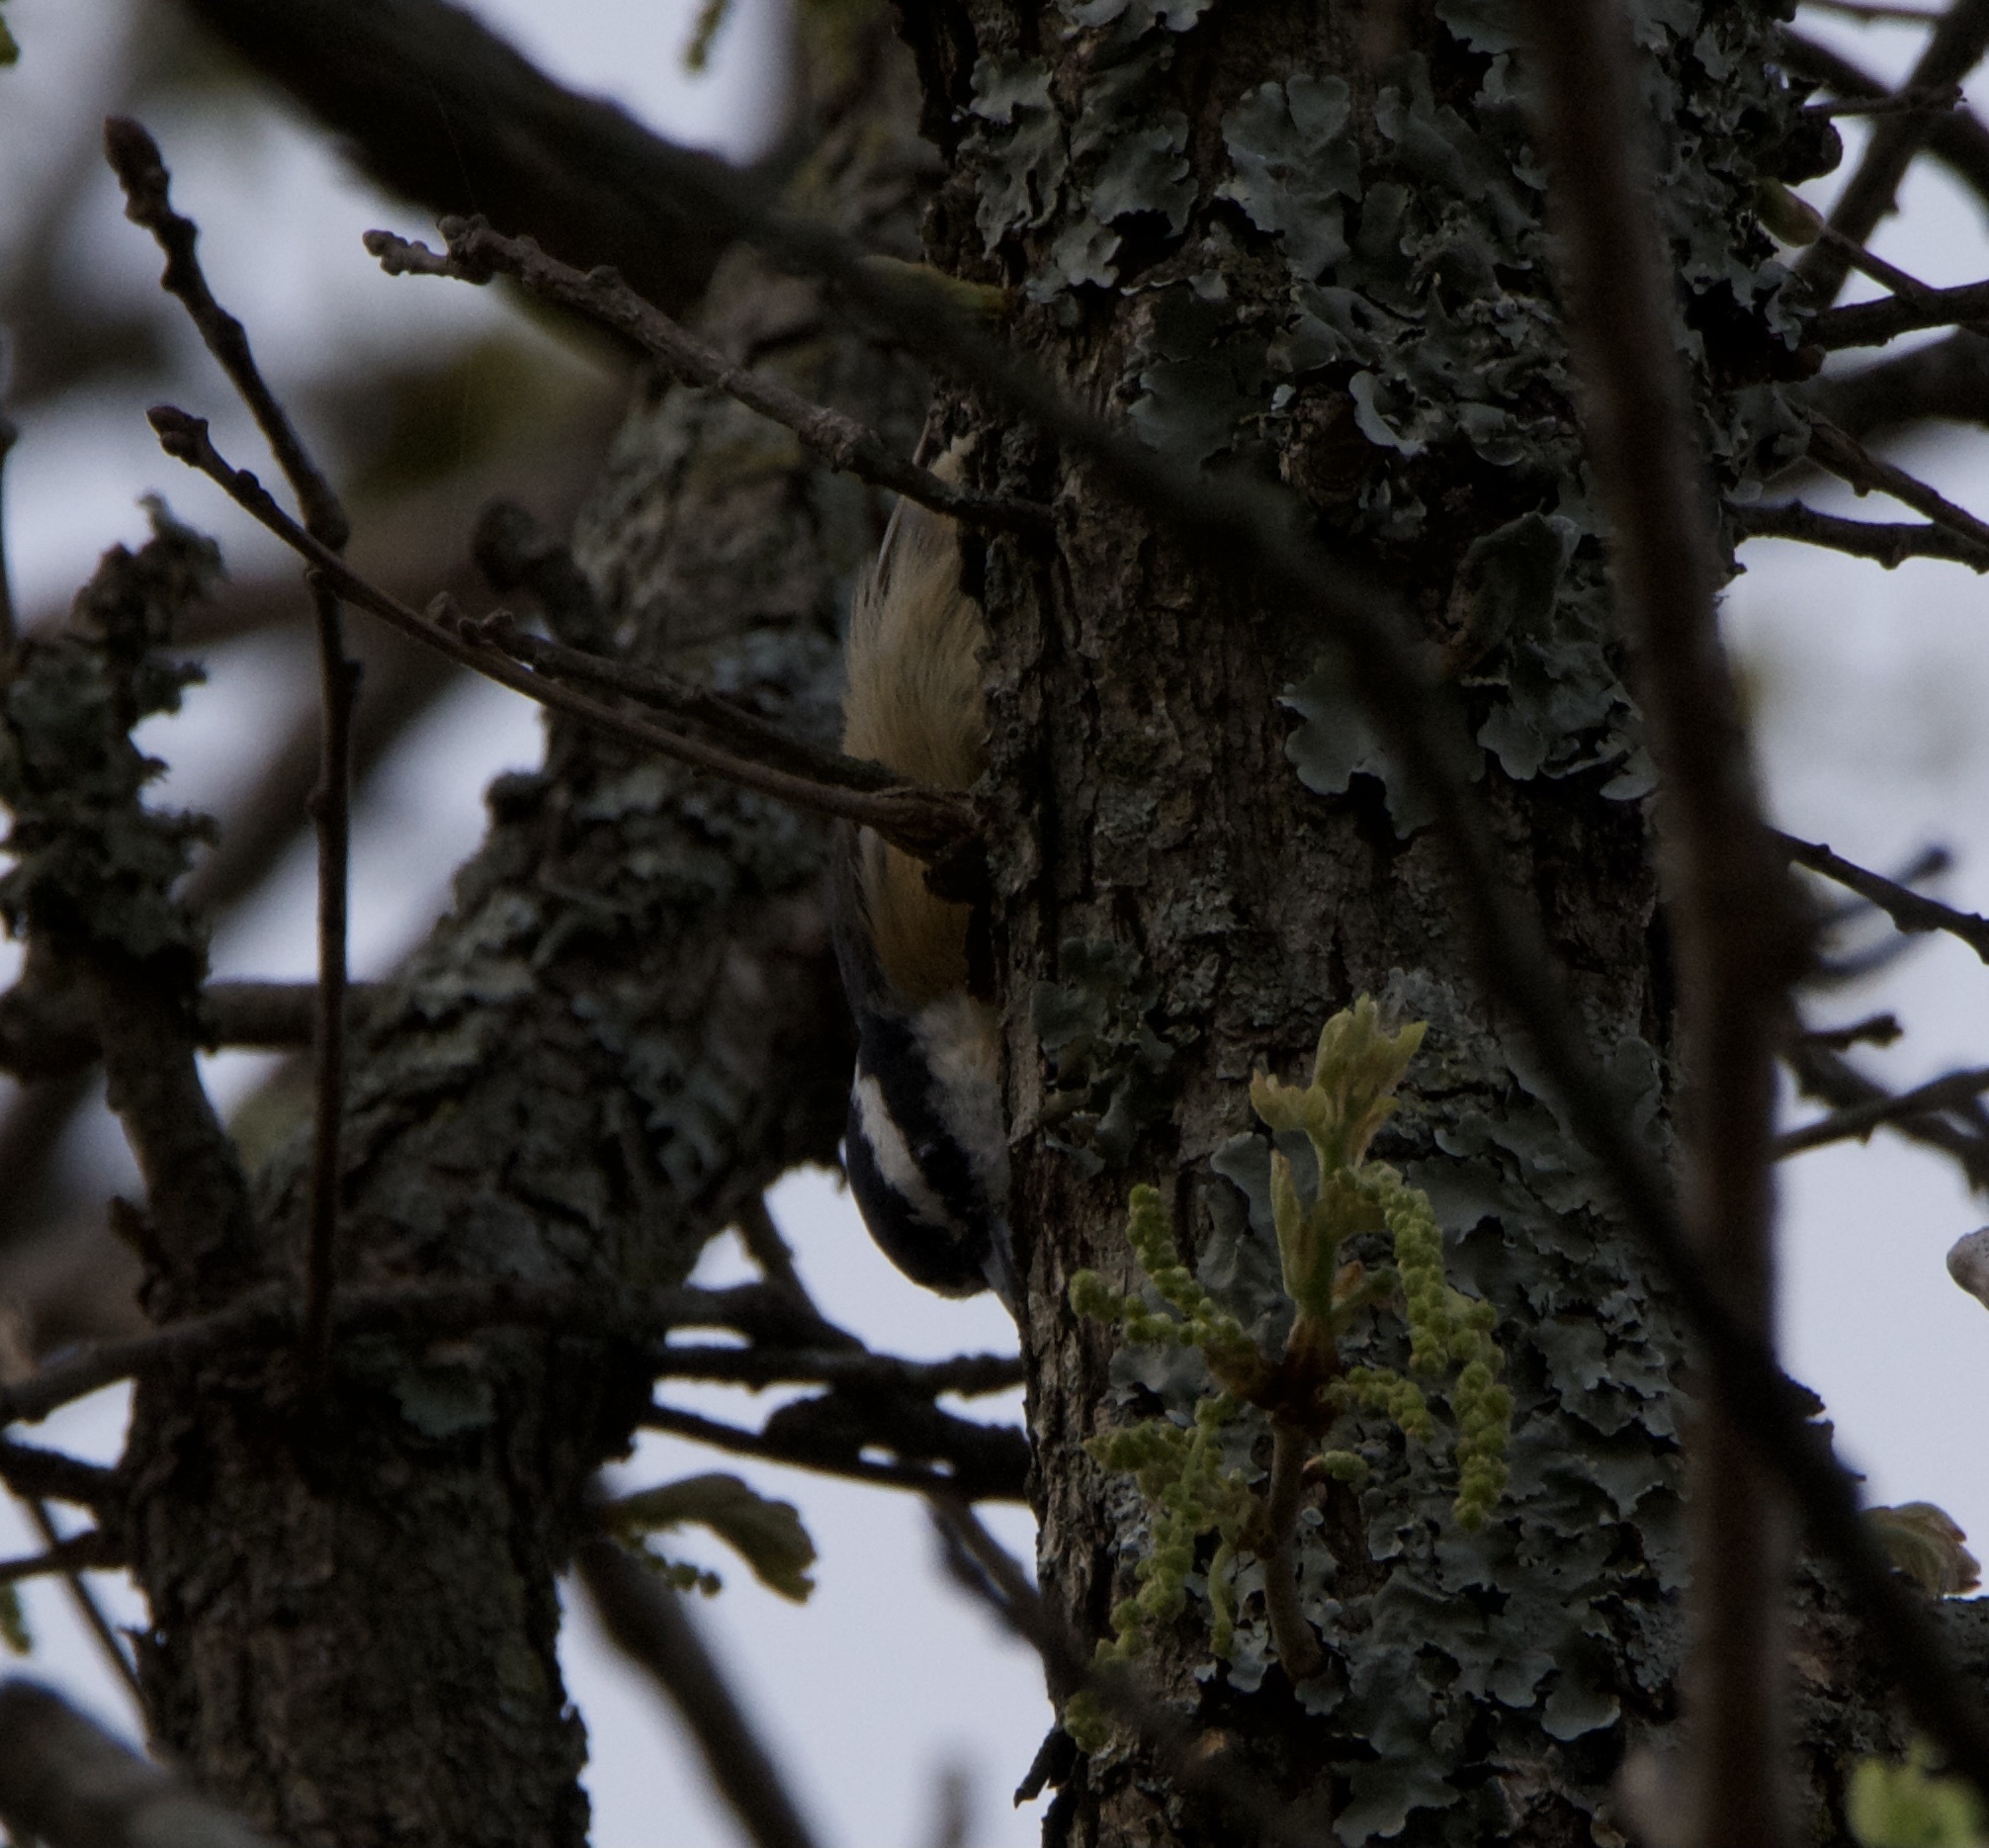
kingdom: Animalia
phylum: Chordata
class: Aves
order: Passeriformes
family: Sittidae
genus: Sitta
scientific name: Sitta canadensis
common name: Red-breasted nuthatch
